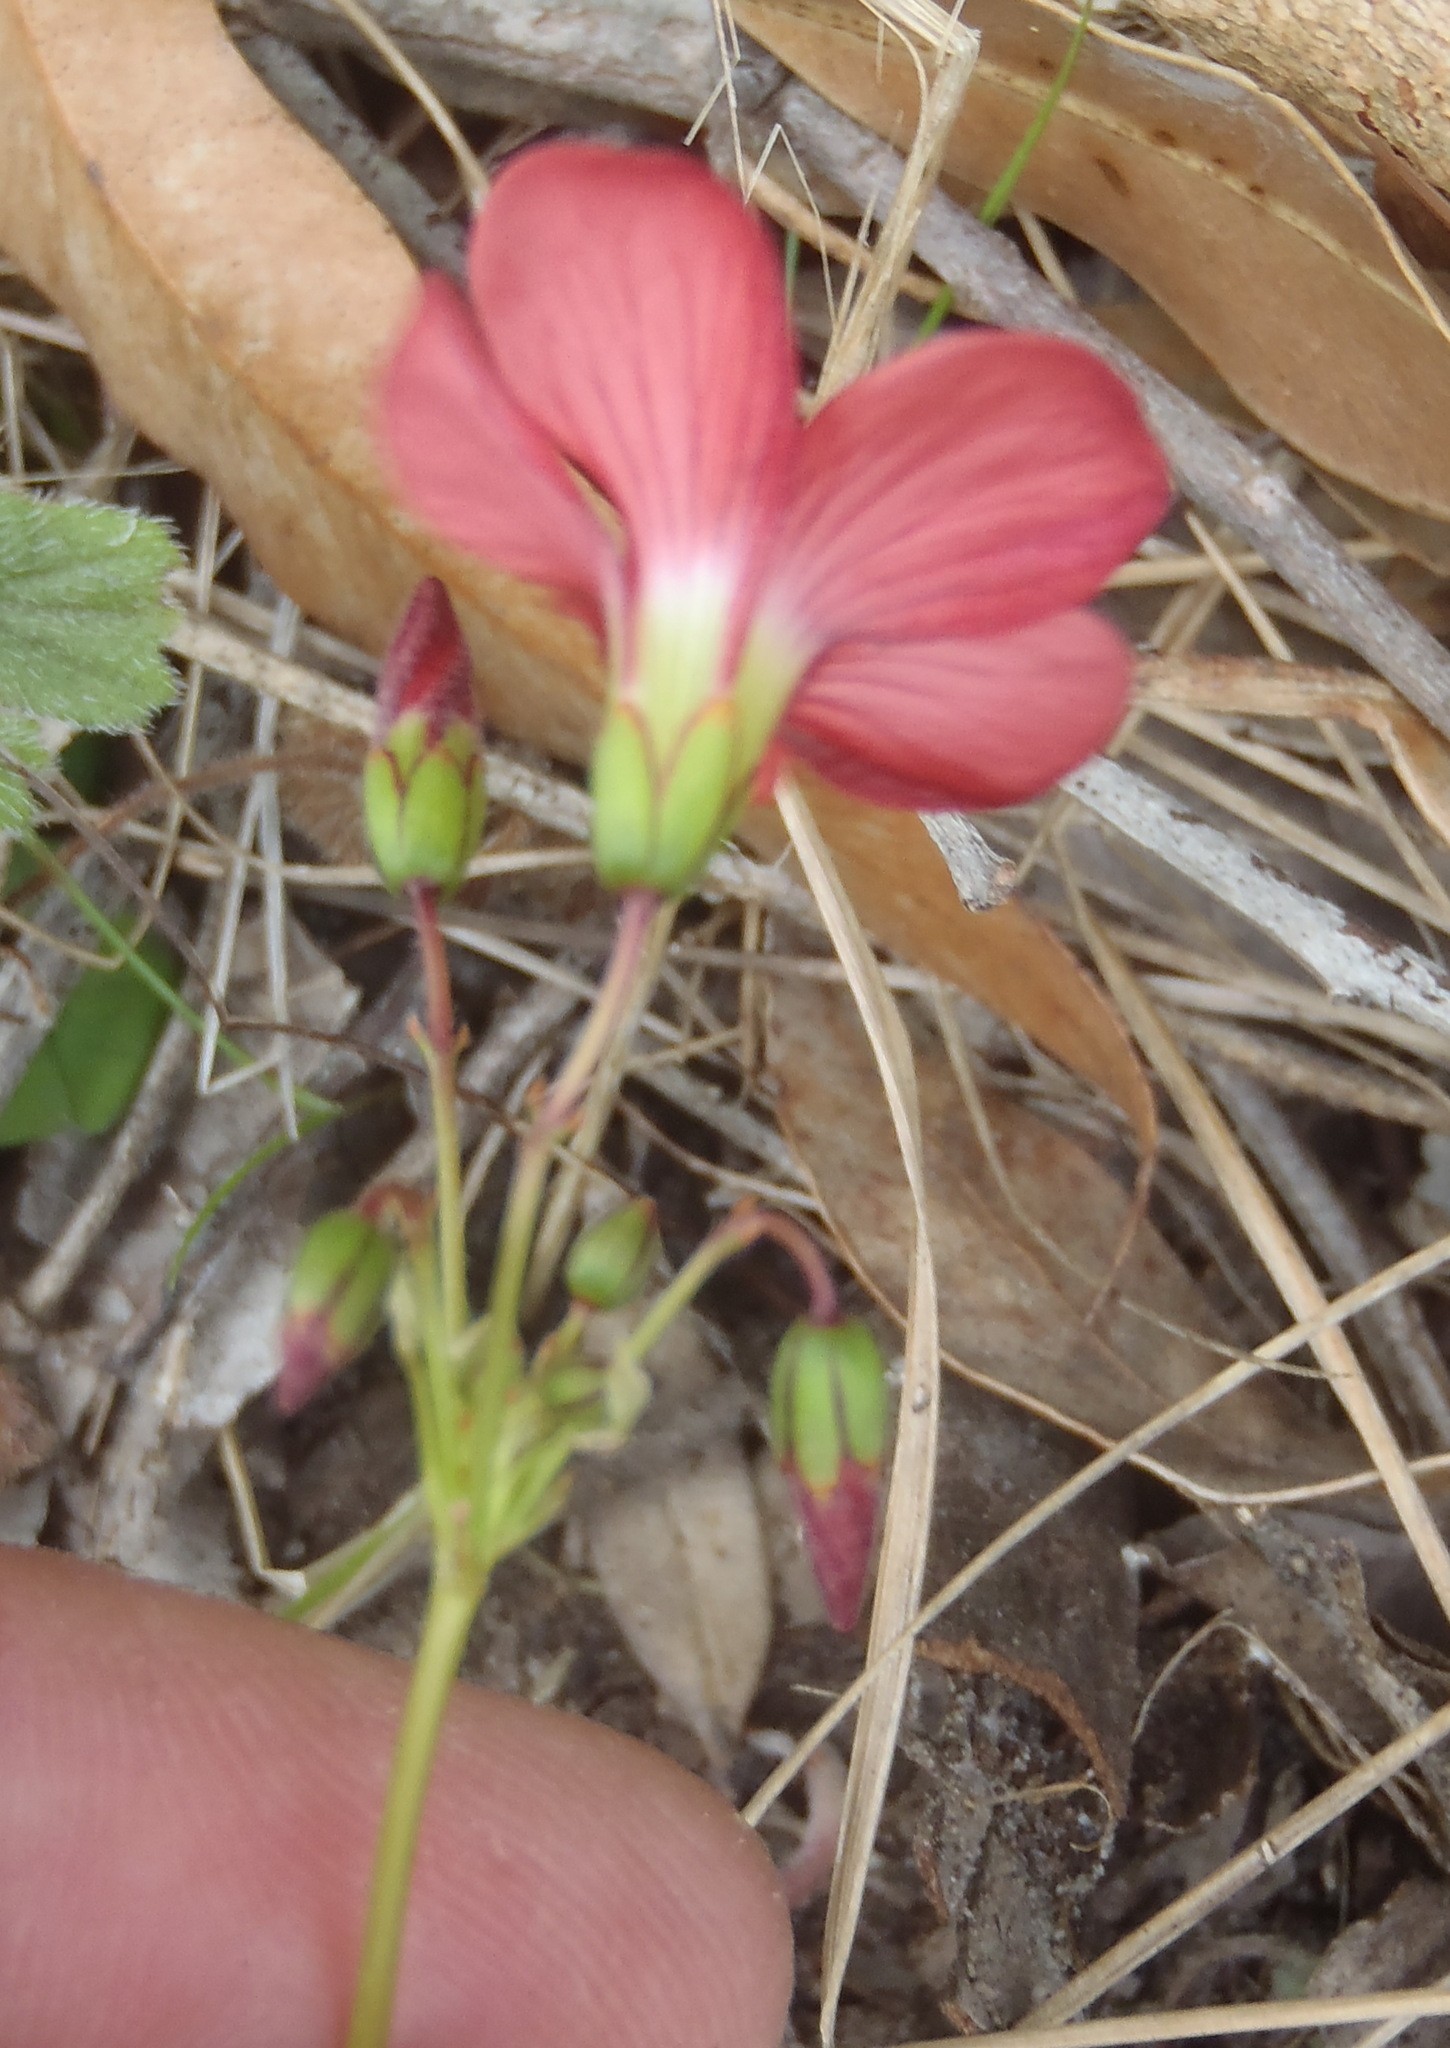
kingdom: Plantae
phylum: Tracheophyta
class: Magnoliopsida
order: Oxalidales
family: Oxalidaceae
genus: Oxalis
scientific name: Oxalis pendulifolia
